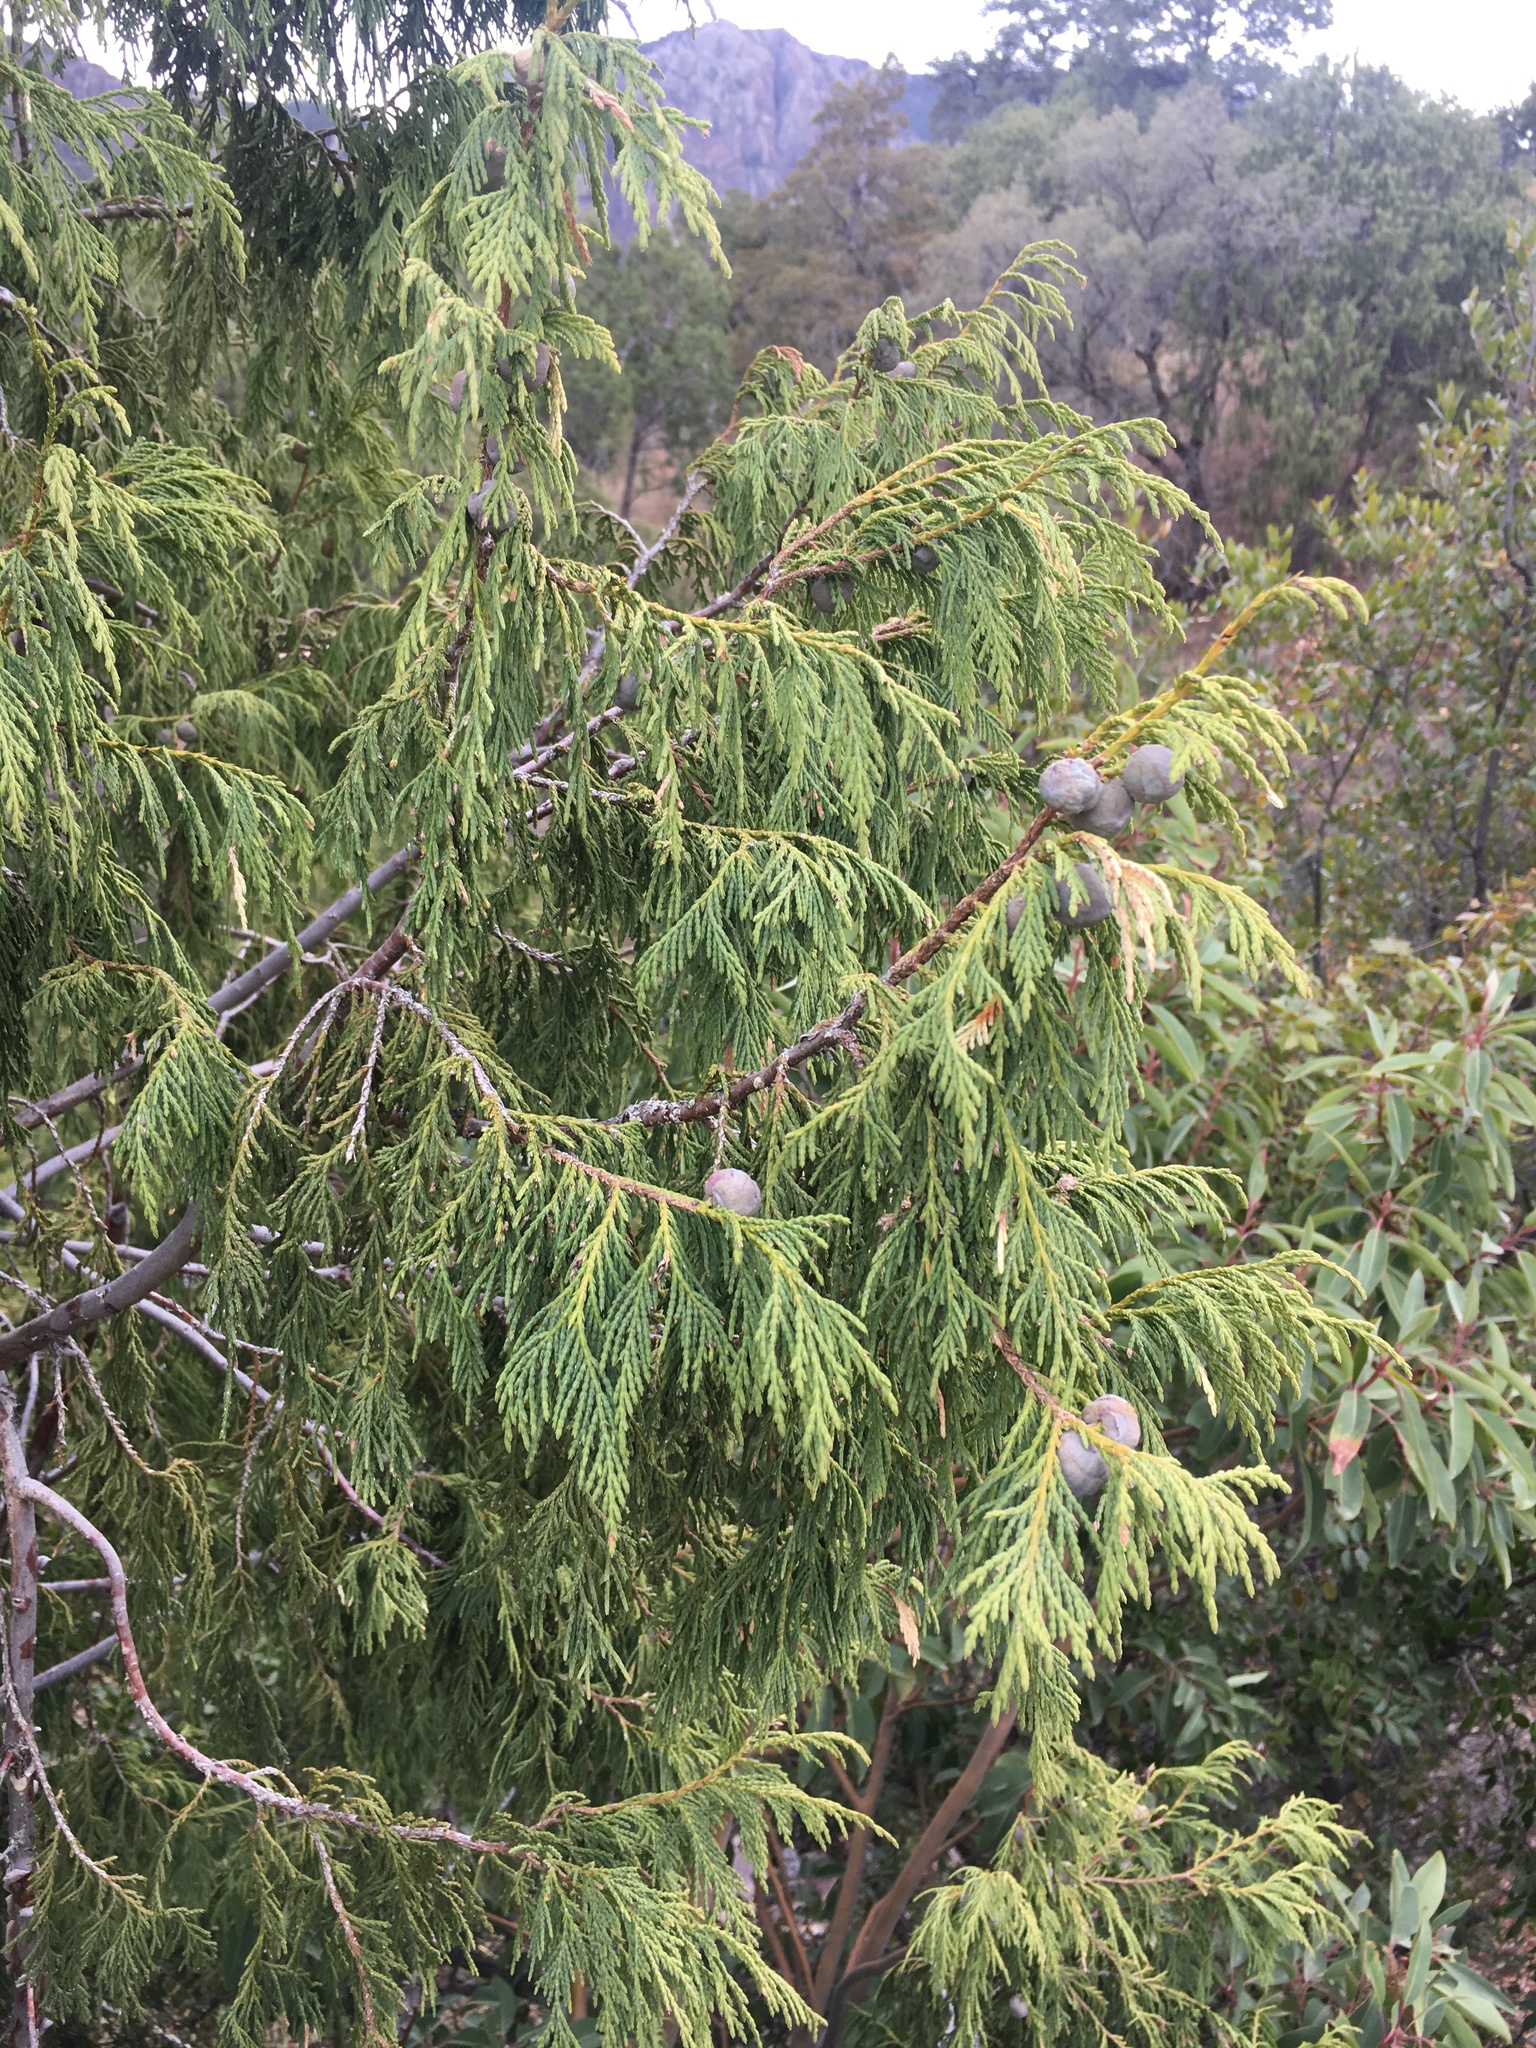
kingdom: Plantae
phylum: Tracheophyta
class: Pinopsida
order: Pinales
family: Cupressaceae
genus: Juniperus
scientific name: Juniperus flaccida
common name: Drooping juniper
